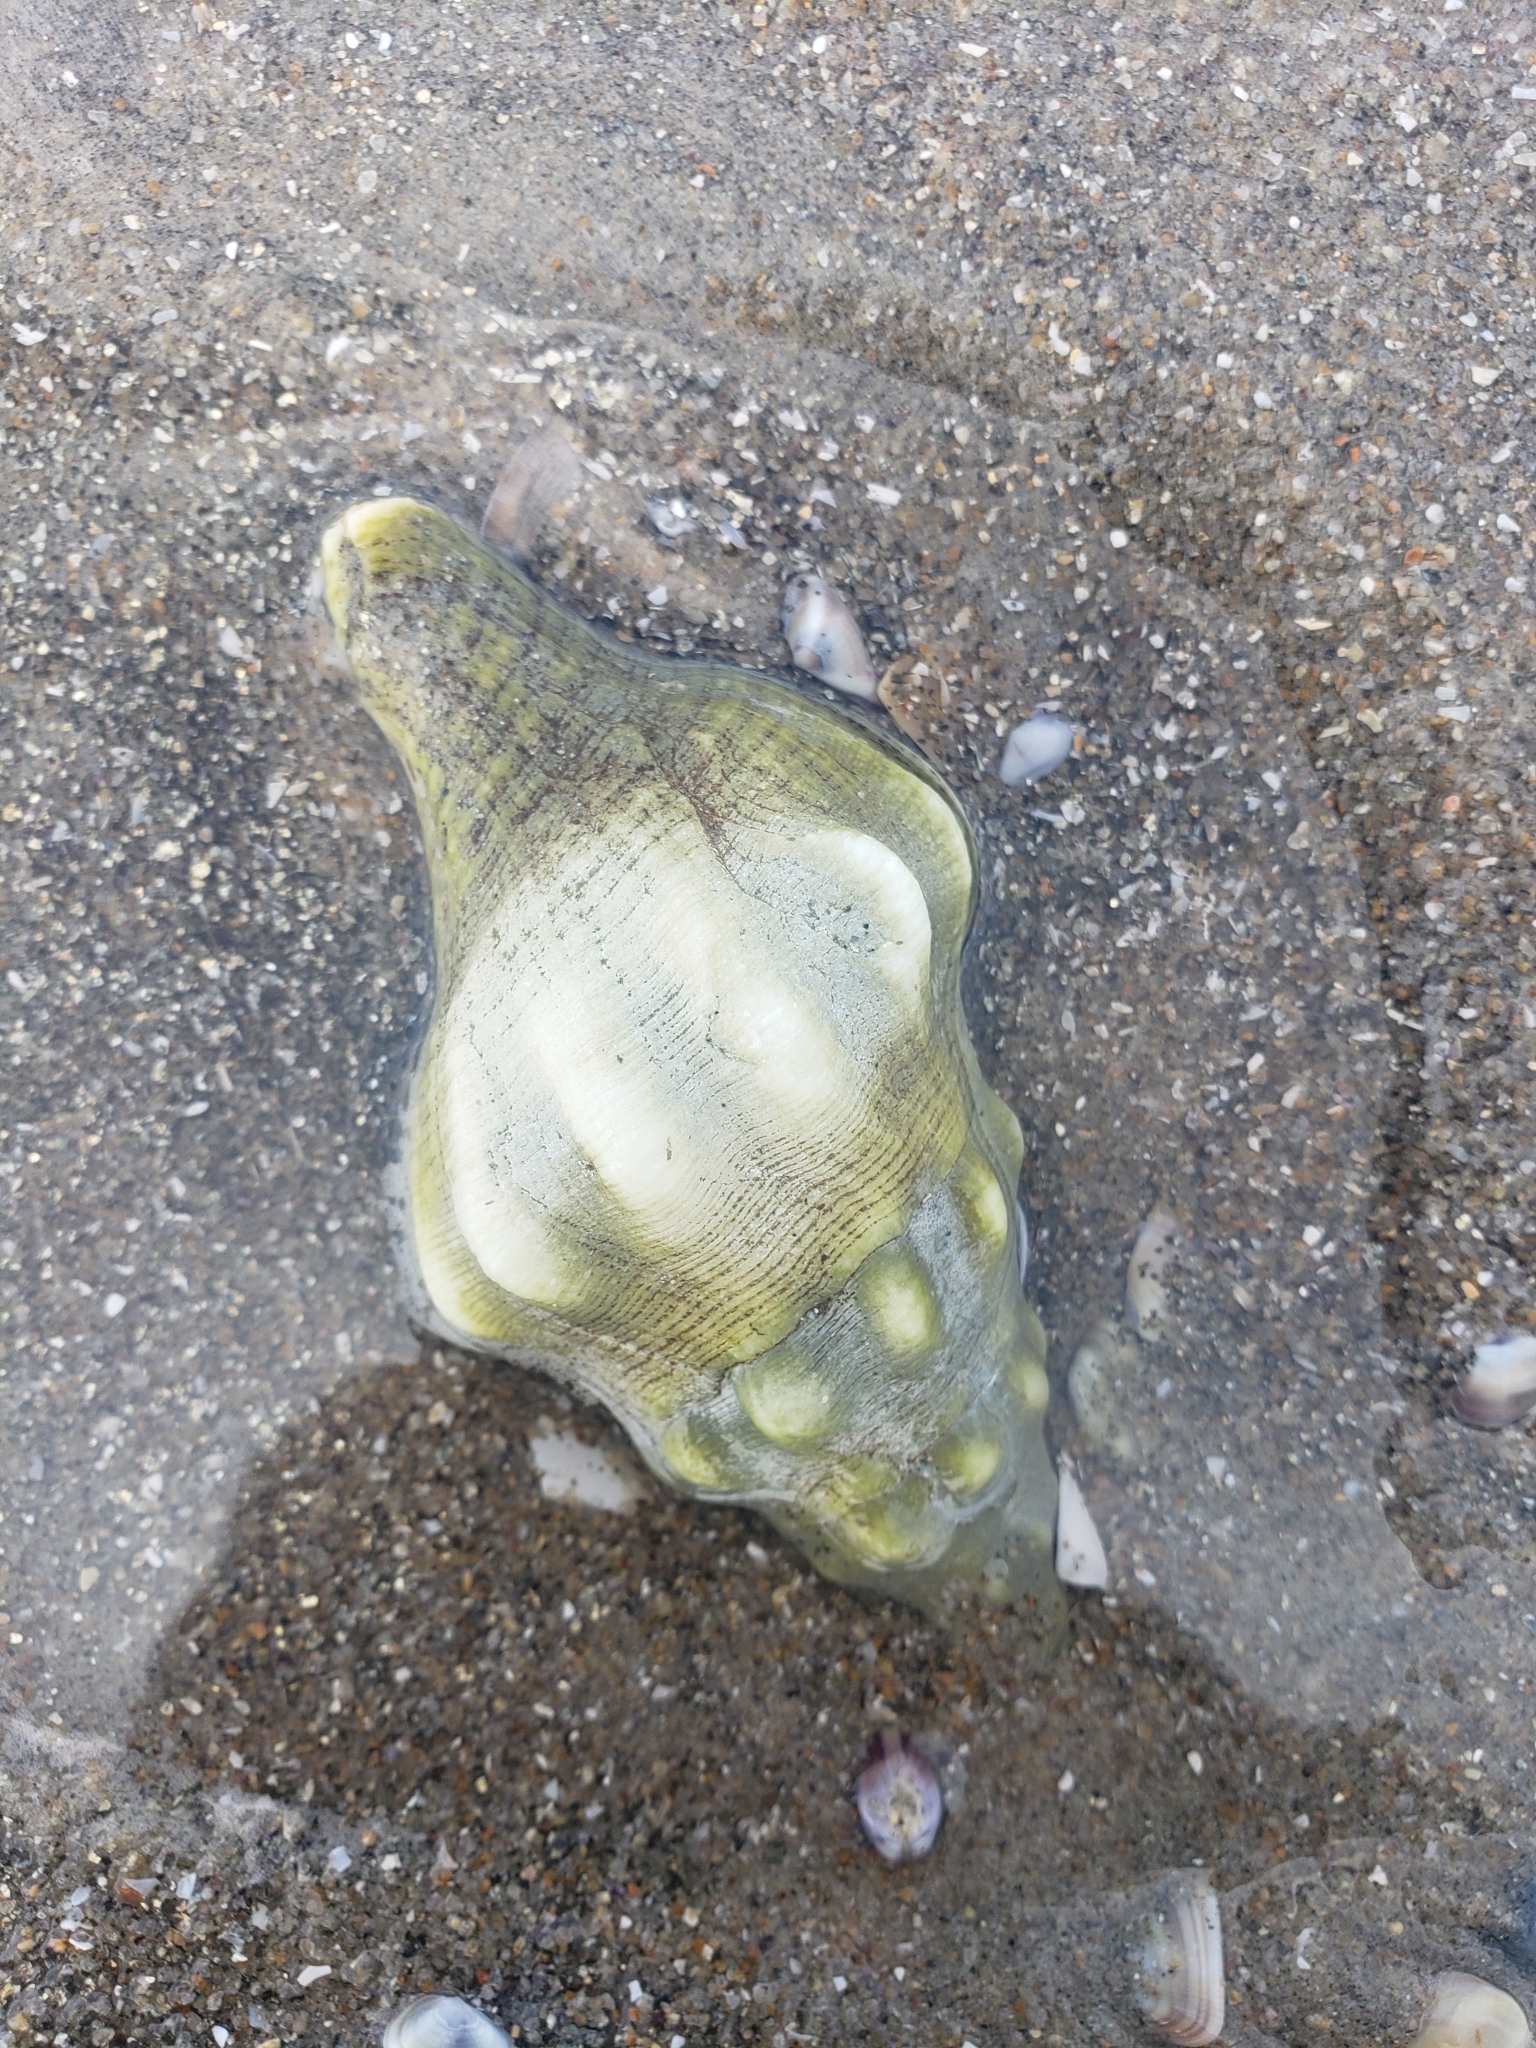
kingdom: Animalia
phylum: Mollusca
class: Gastropoda
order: Neogastropoda
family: Austrosiphonidae
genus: Kelletia
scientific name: Kelletia kelletii
